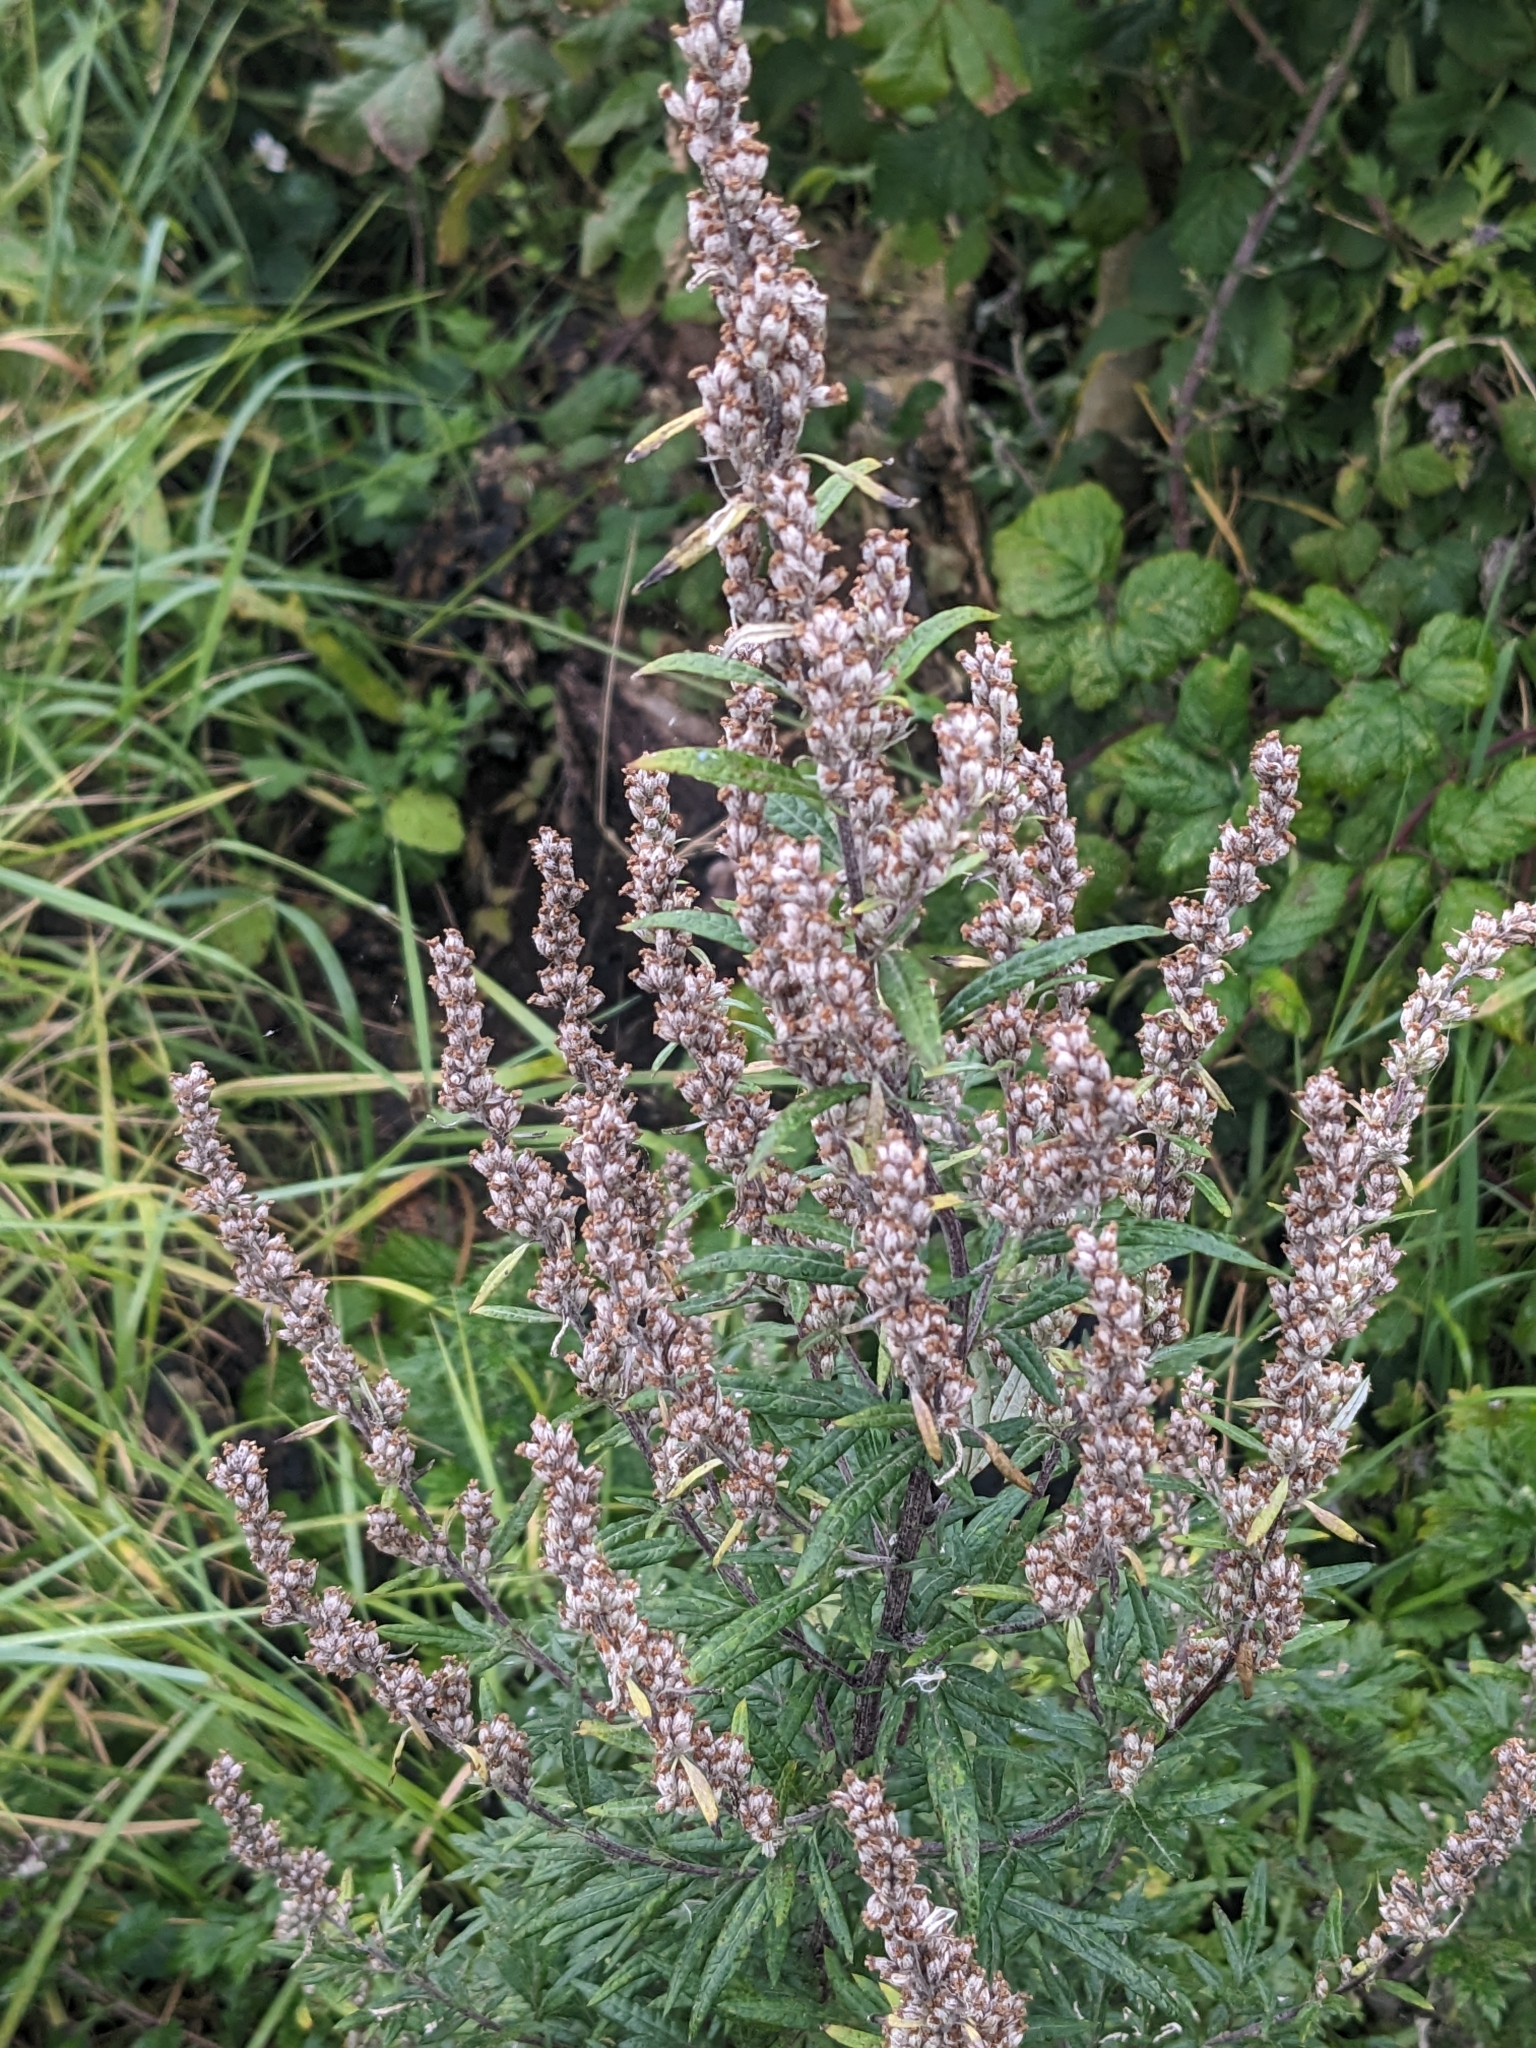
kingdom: Plantae
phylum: Tracheophyta
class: Magnoliopsida
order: Asterales
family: Asteraceae
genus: Artemisia
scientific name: Artemisia vulgaris
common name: Mugwort
